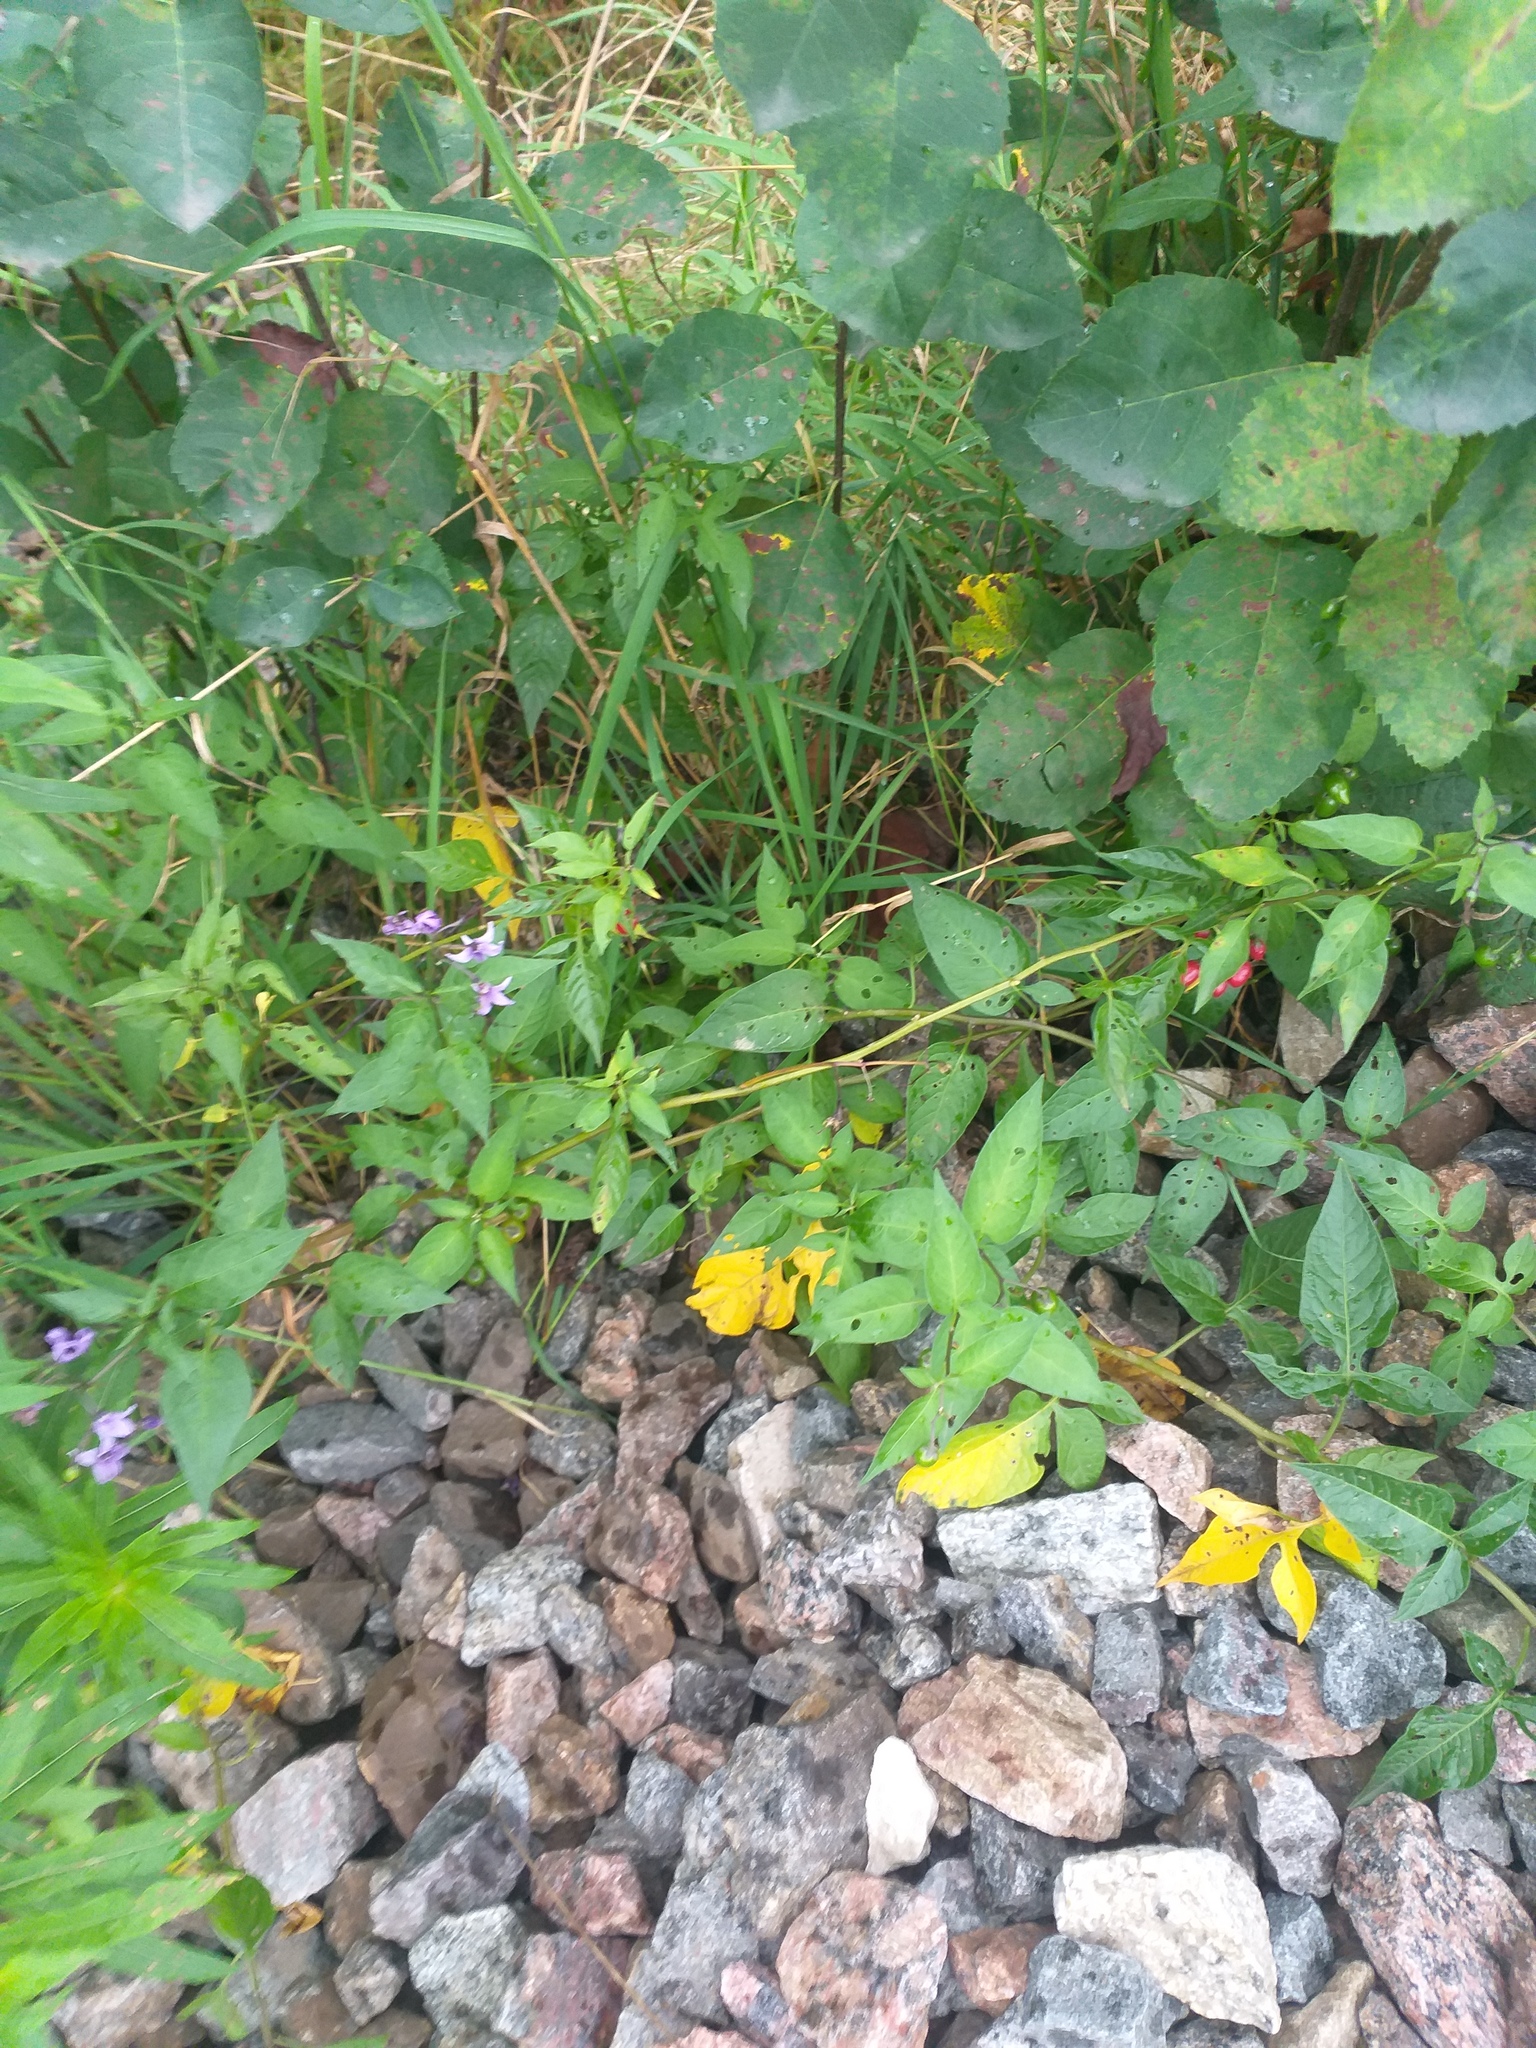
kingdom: Plantae
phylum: Tracheophyta
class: Magnoliopsida
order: Solanales
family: Solanaceae
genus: Solanum
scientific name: Solanum dulcamara
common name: Climbing nightshade
